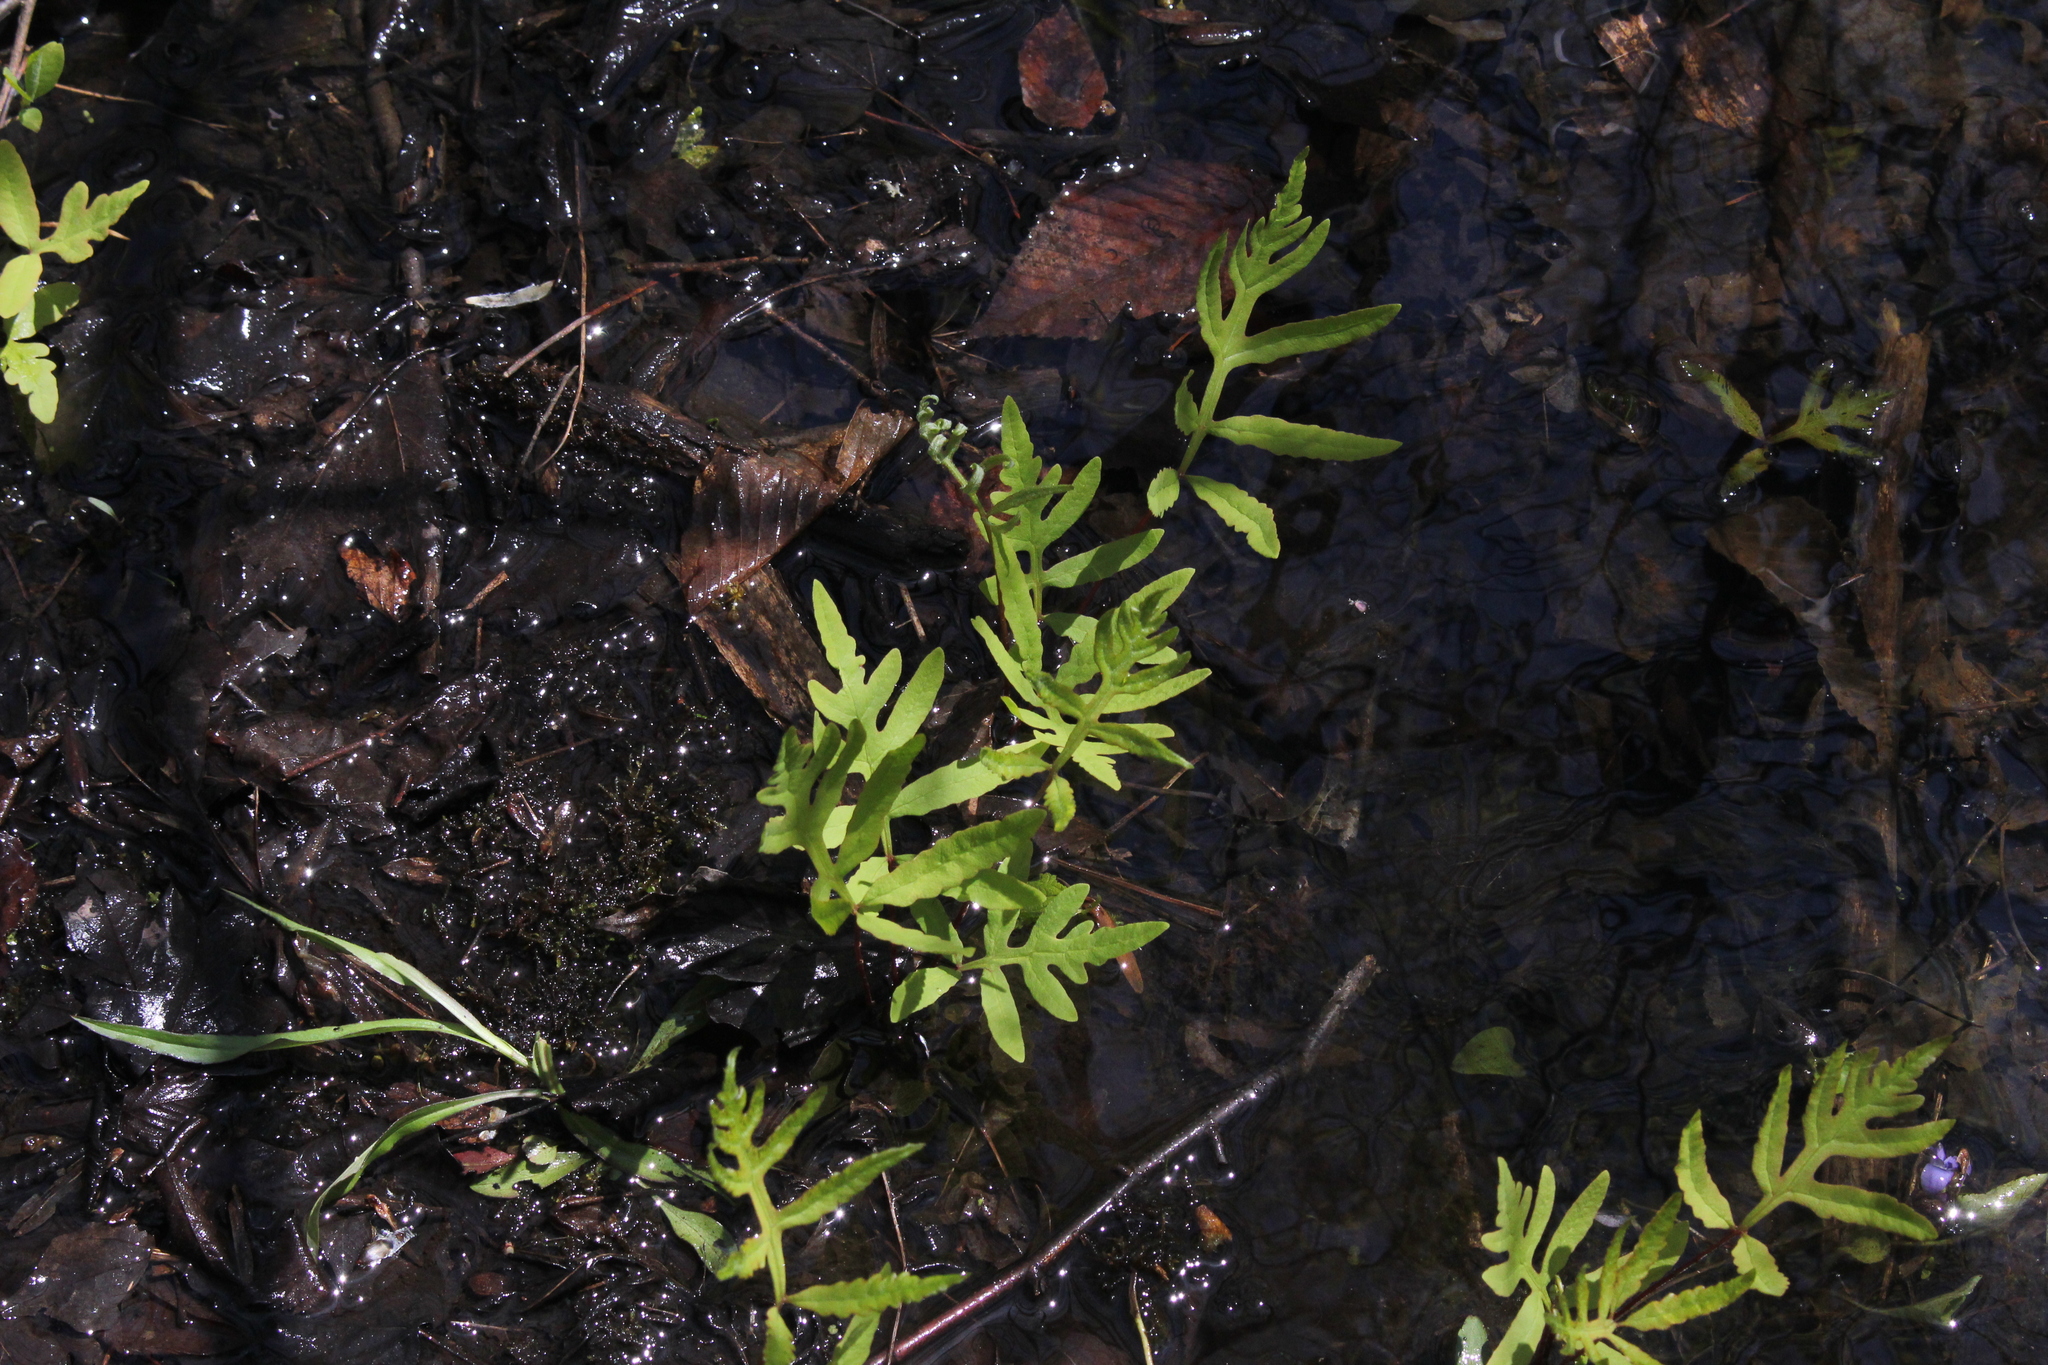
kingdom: Plantae
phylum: Tracheophyta
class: Polypodiopsida
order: Polypodiales
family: Onocleaceae
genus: Onoclea
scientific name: Onoclea sensibilis
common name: Sensitive fern
